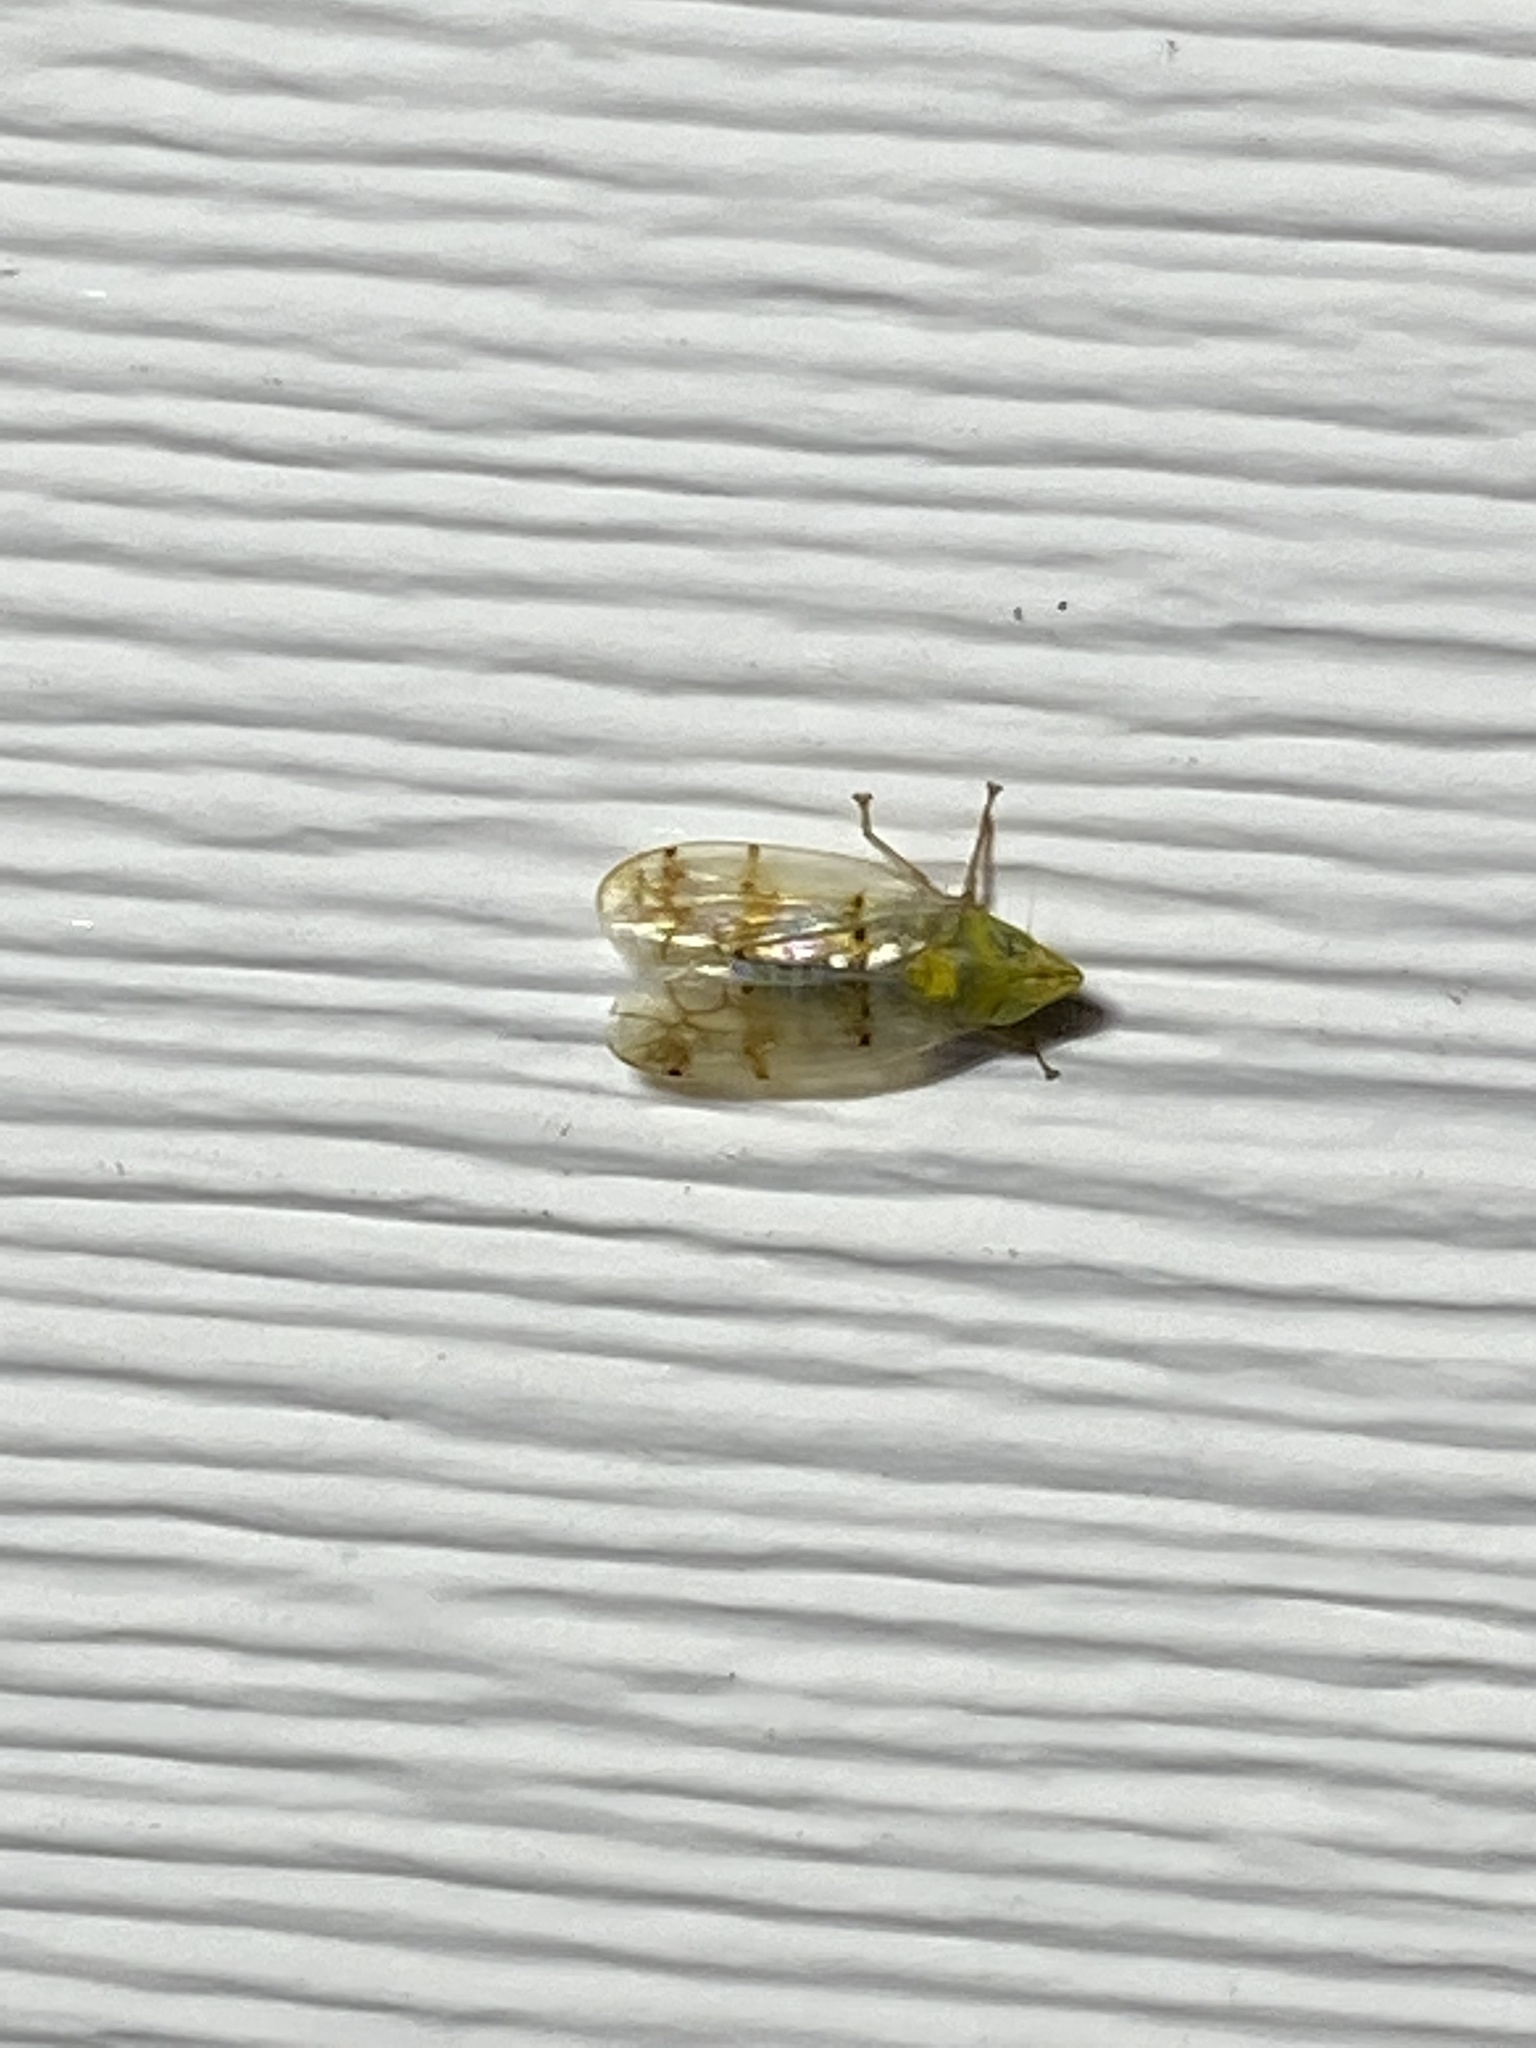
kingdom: Animalia
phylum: Arthropoda
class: Insecta
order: Hemiptera
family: Cicadellidae
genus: Japananus
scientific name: Japananus hyalinus
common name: The japanese maple leafhopper
